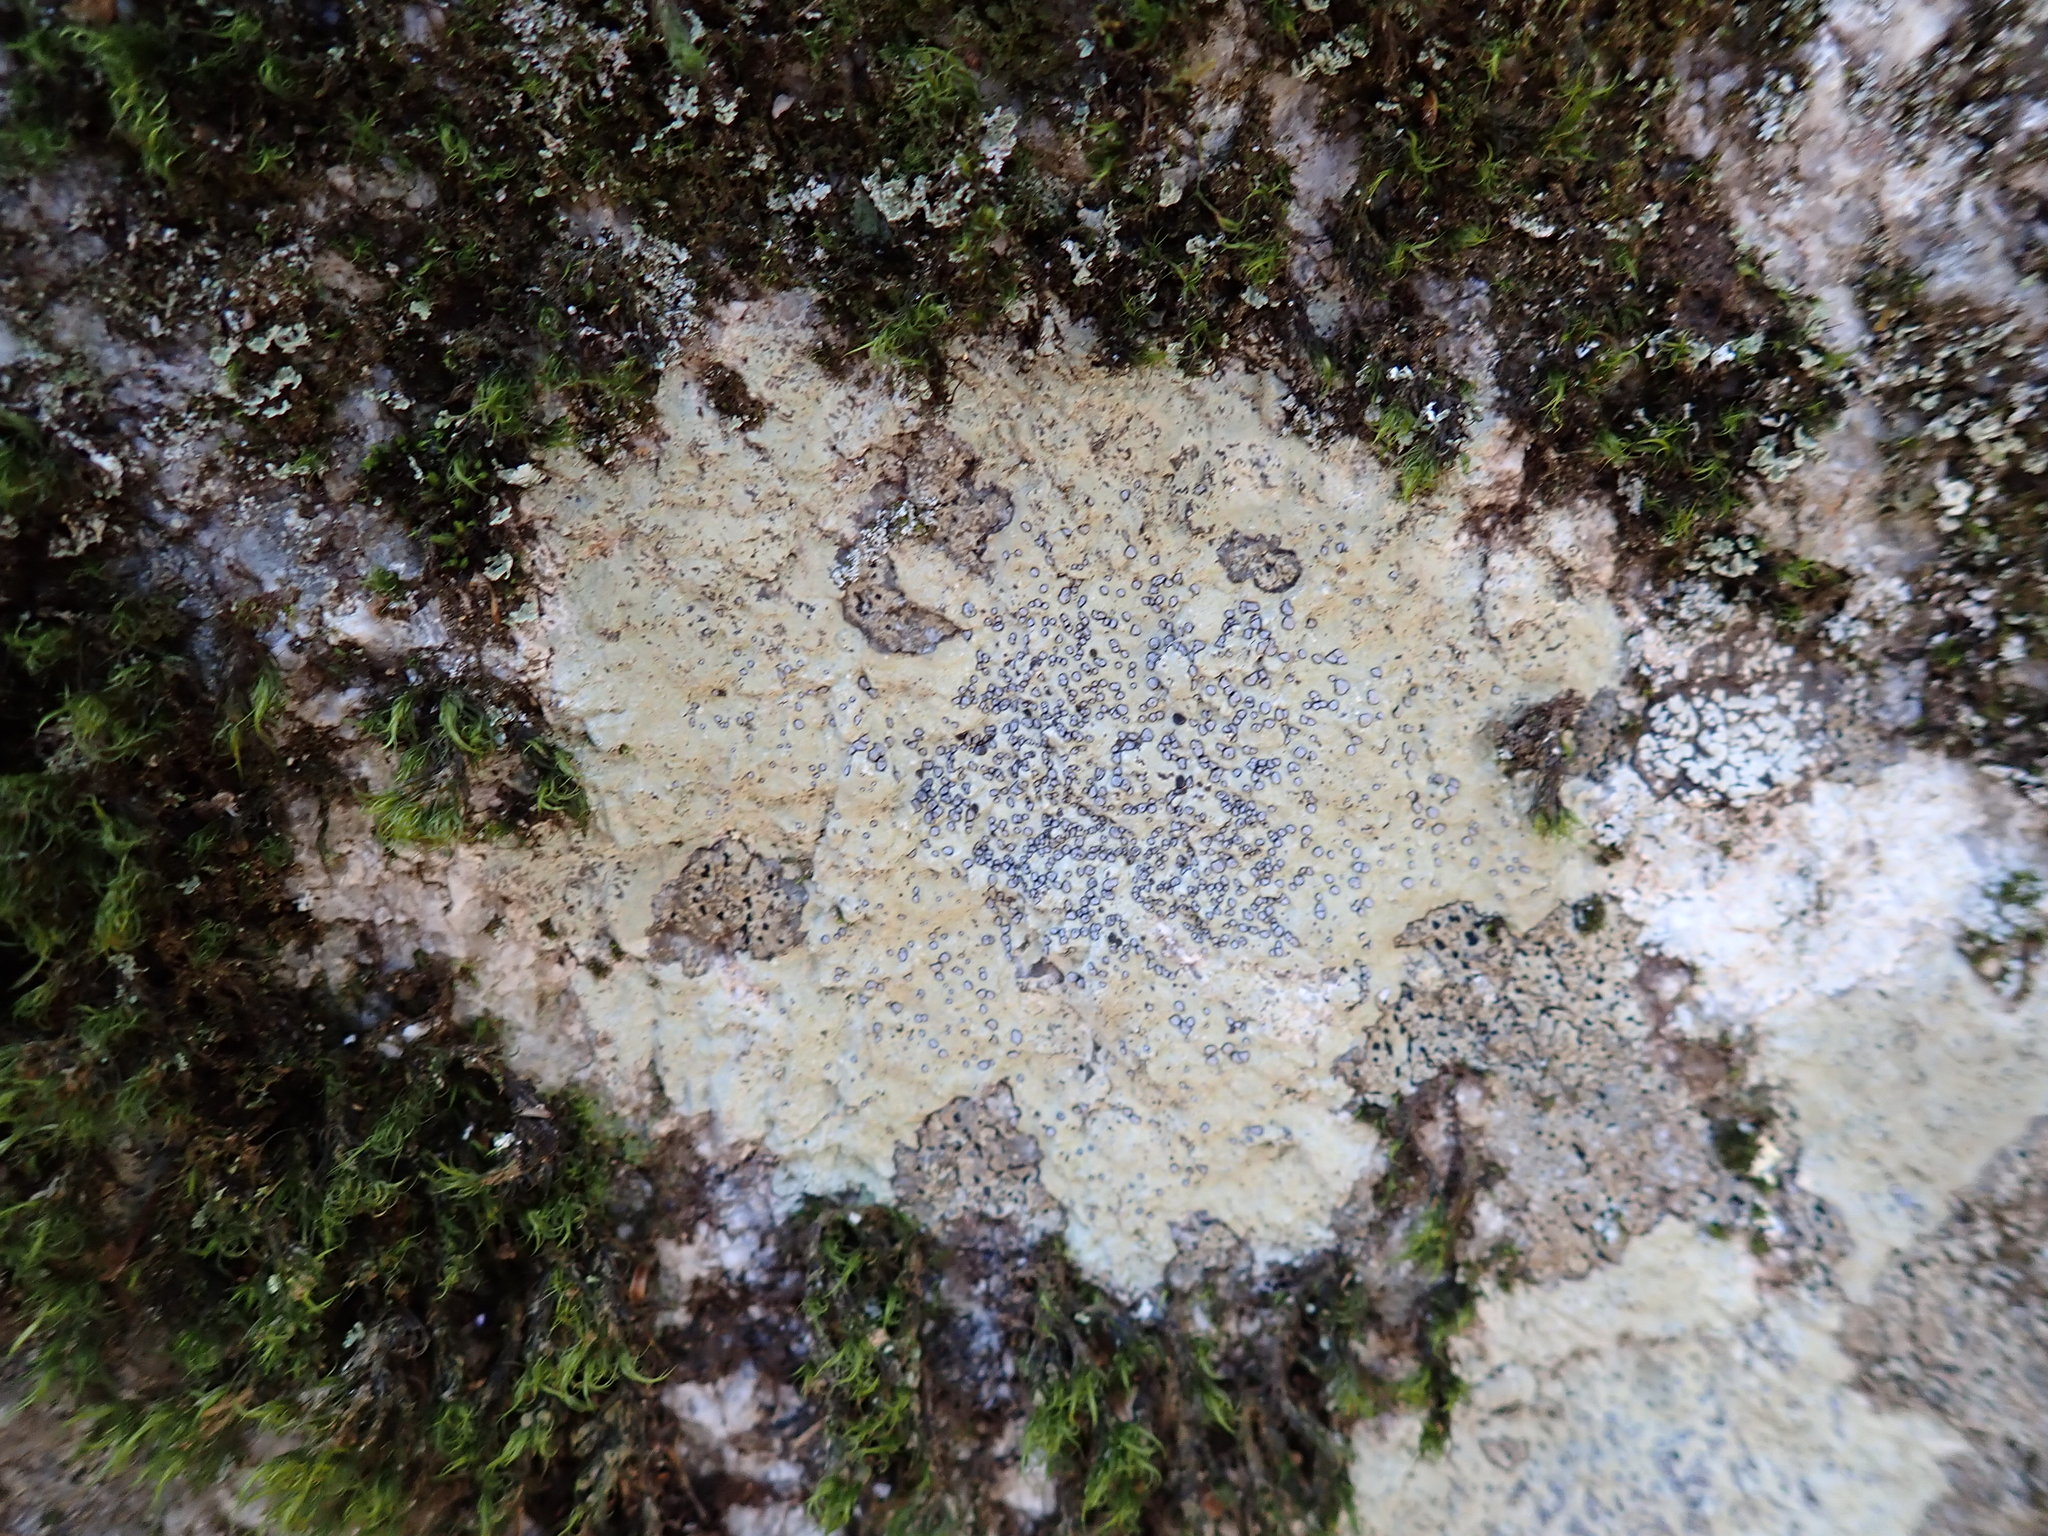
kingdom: Fungi
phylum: Ascomycota
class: Lecanoromycetes
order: Lecideales
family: Lecideaceae
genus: Porpidia
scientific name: Porpidia albocaerulescens
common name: Smokey-eyed boulder lichen
